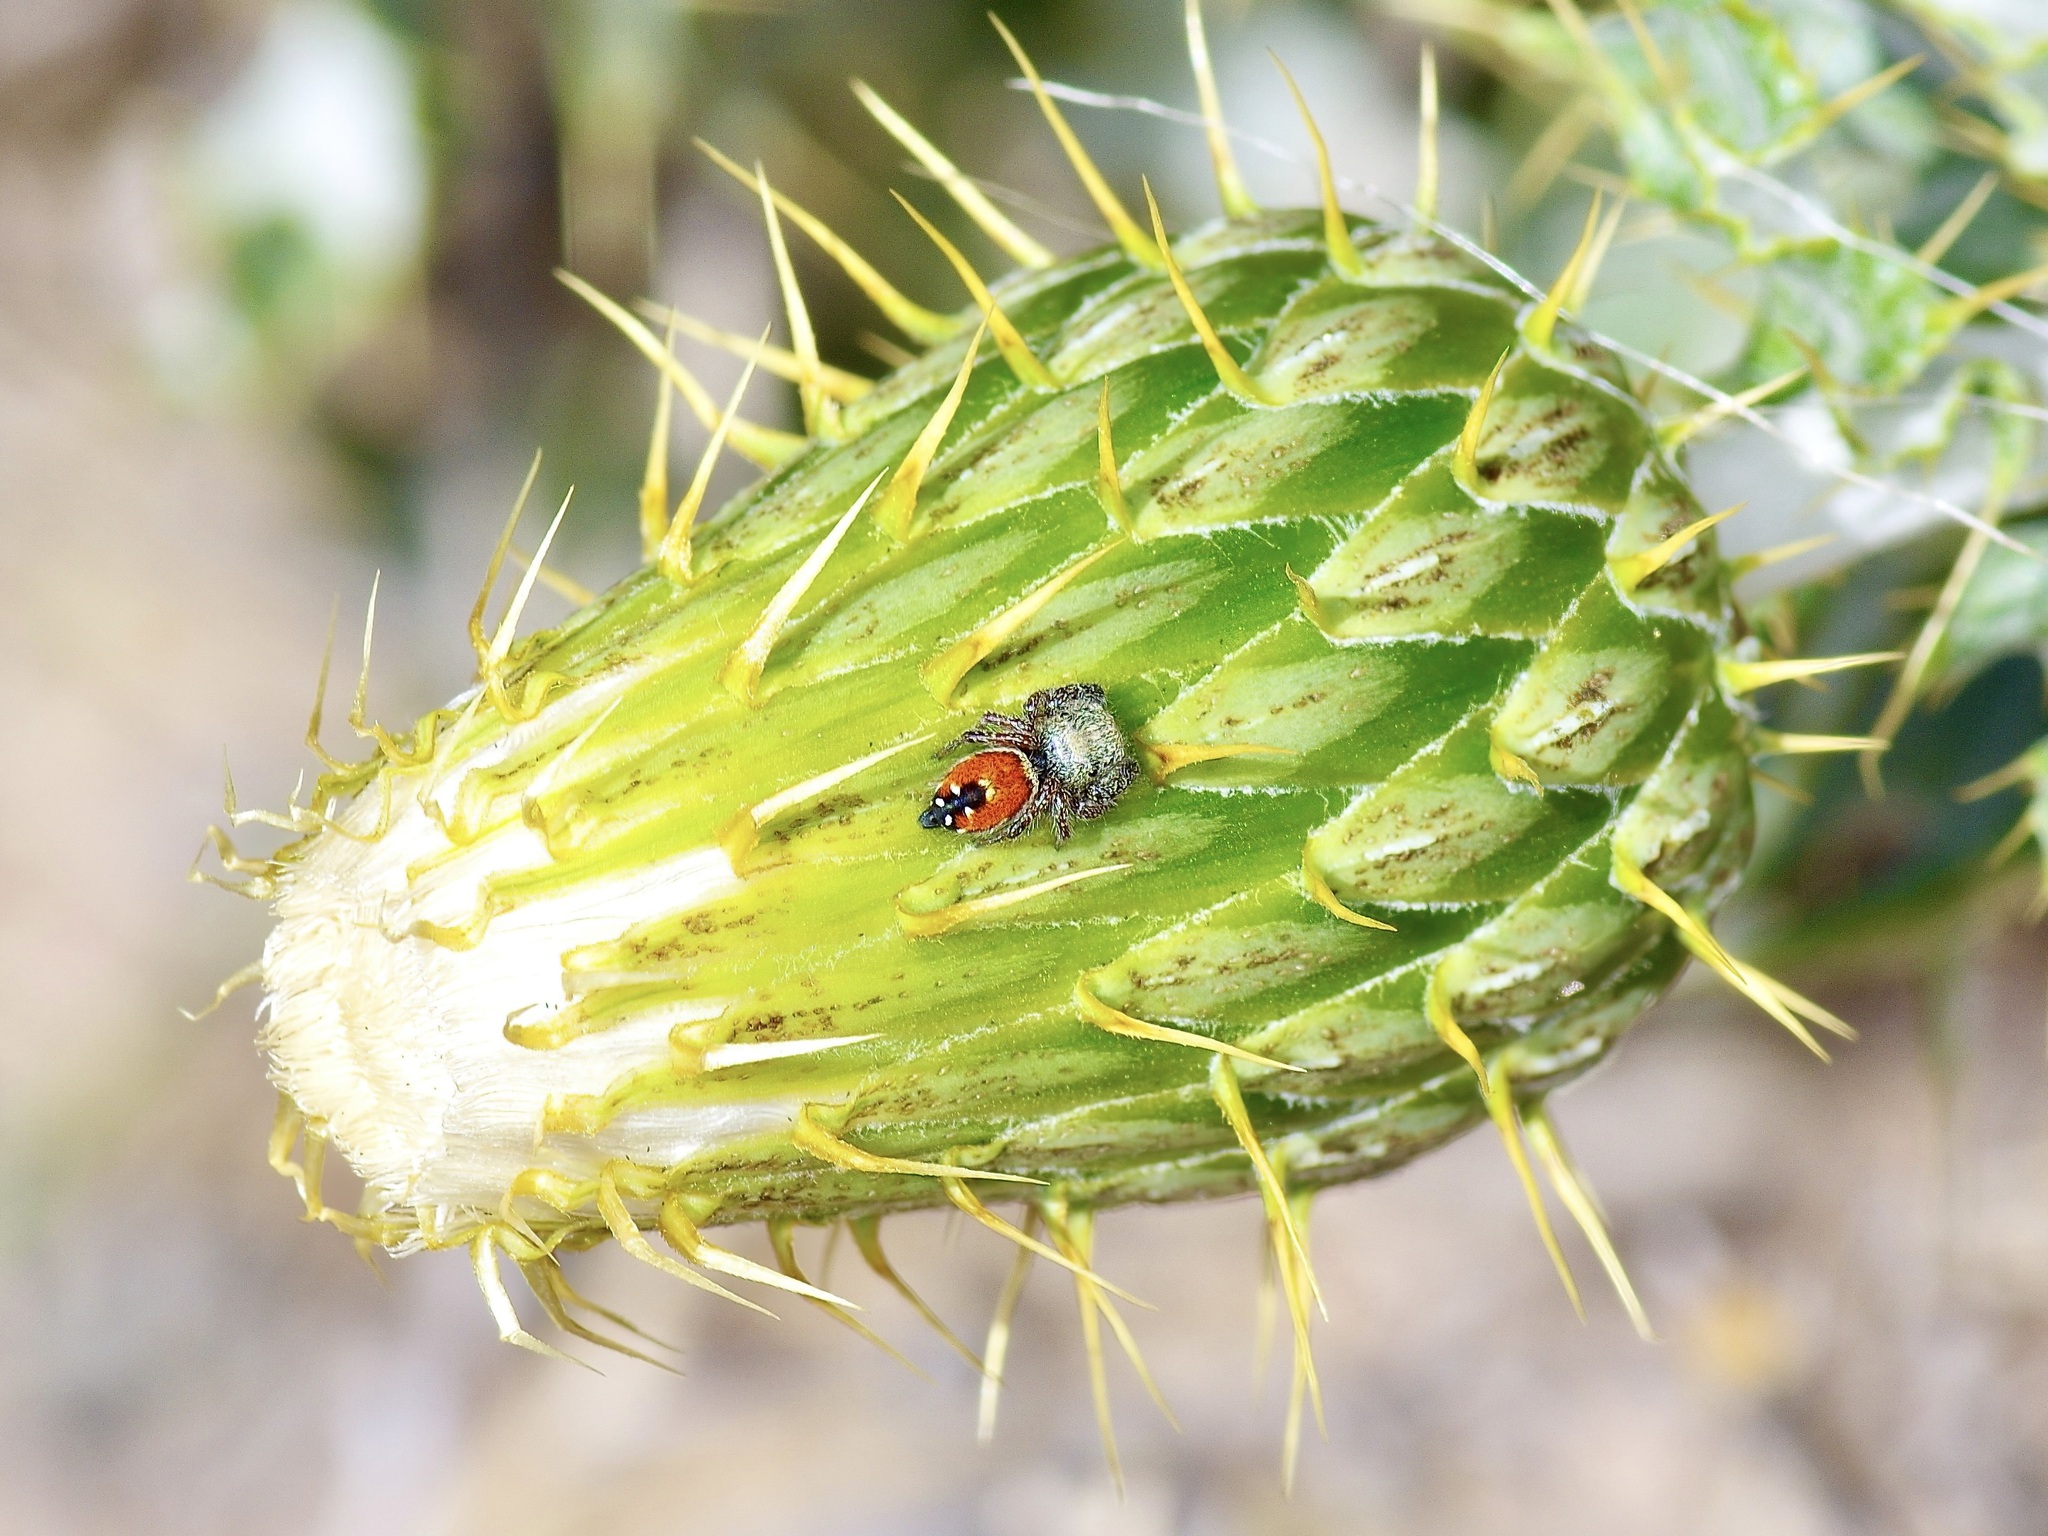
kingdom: Animalia
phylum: Arthropoda
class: Arachnida
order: Araneae
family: Salticidae
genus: Phidippus
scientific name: Phidippus ardens
